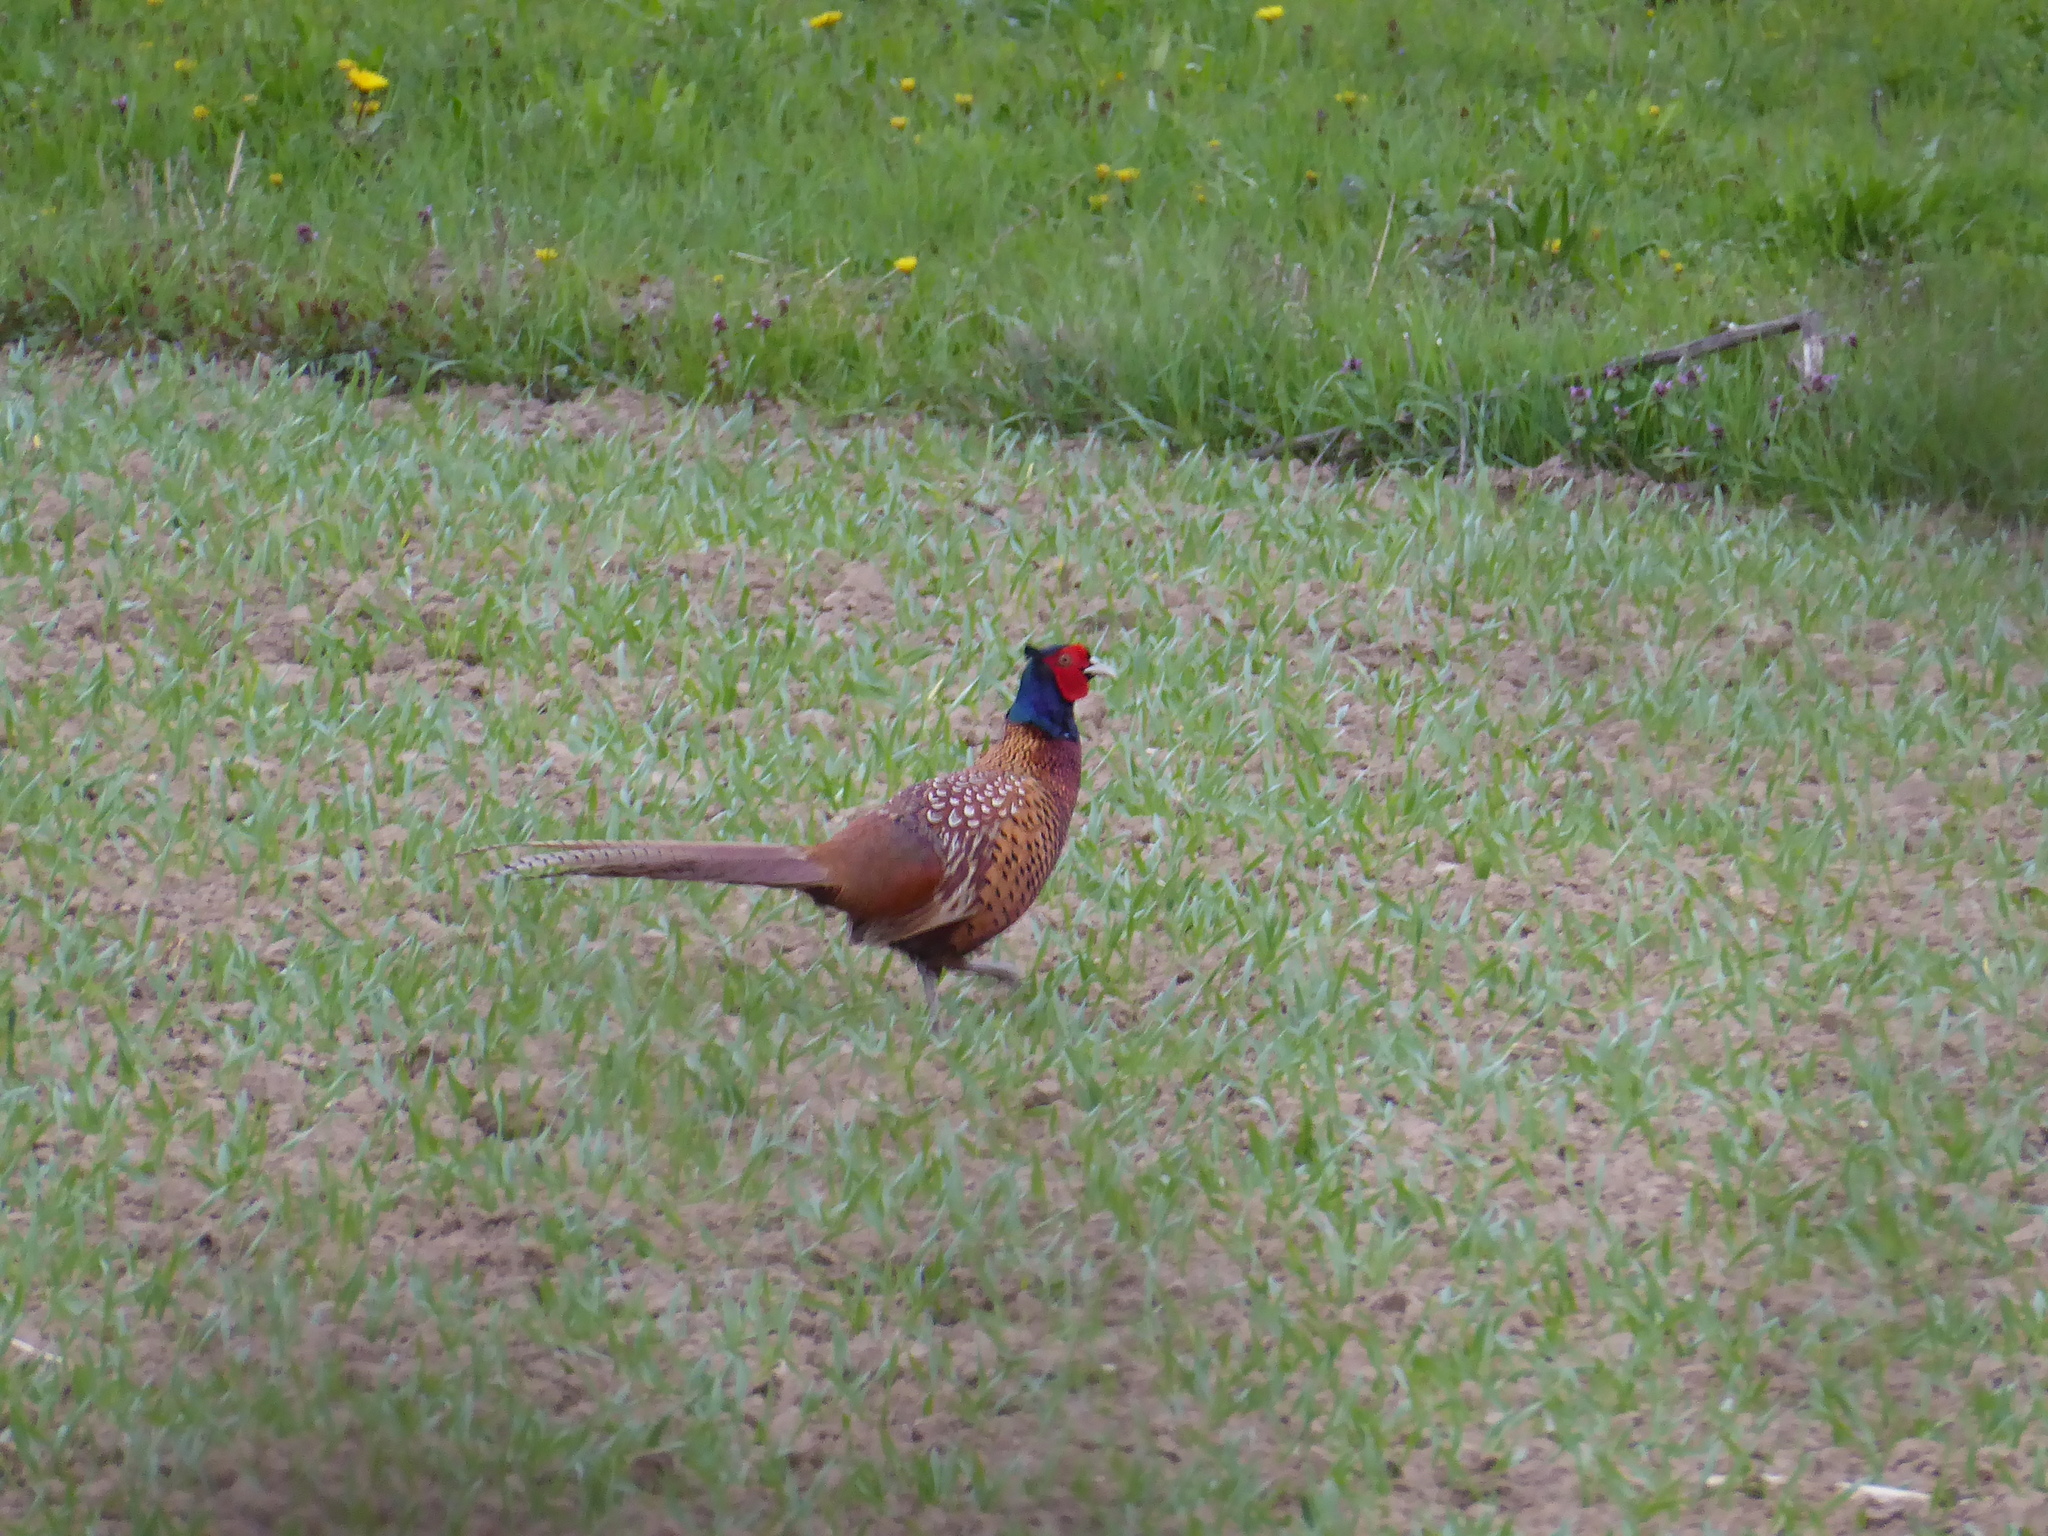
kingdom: Animalia
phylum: Chordata
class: Aves
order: Galliformes
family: Phasianidae
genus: Phasianus
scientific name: Phasianus colchicus
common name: Common pheasant
